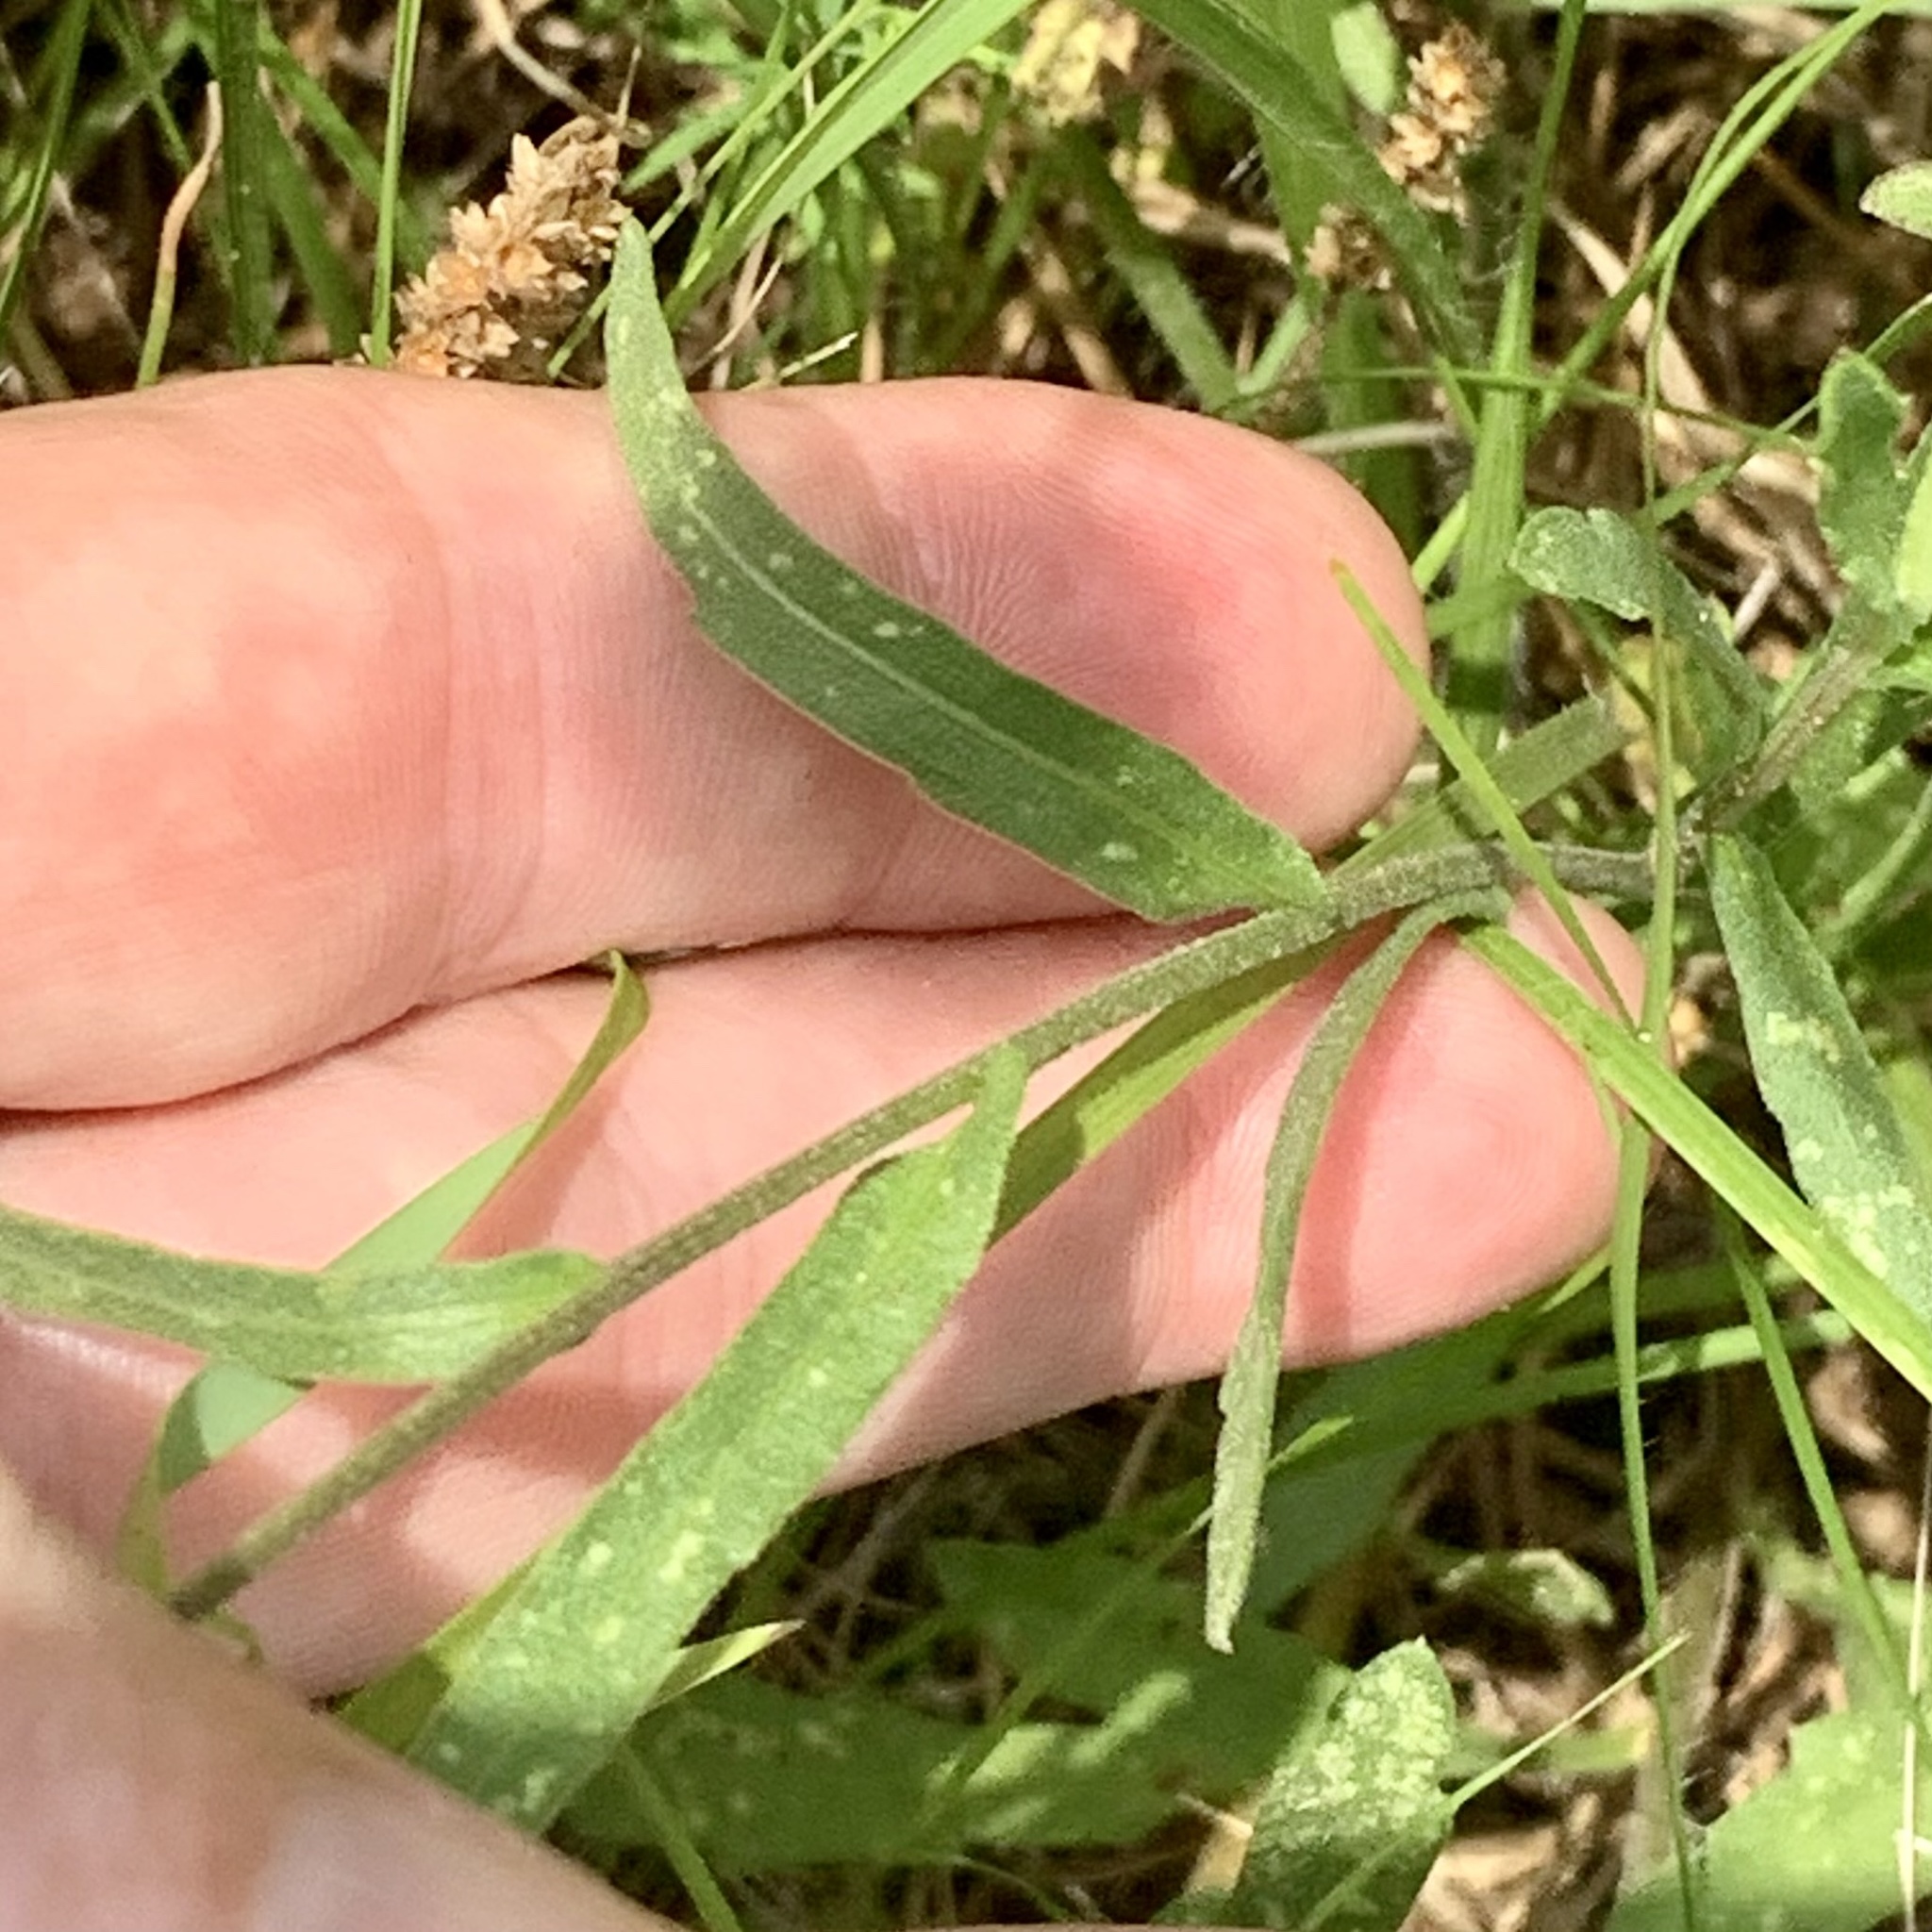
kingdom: Plantae
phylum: Tracheophyta
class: Magnoliopsida
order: Asterales
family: Asteraceae
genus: Gaillardia
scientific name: Gaillardia aestivalis
